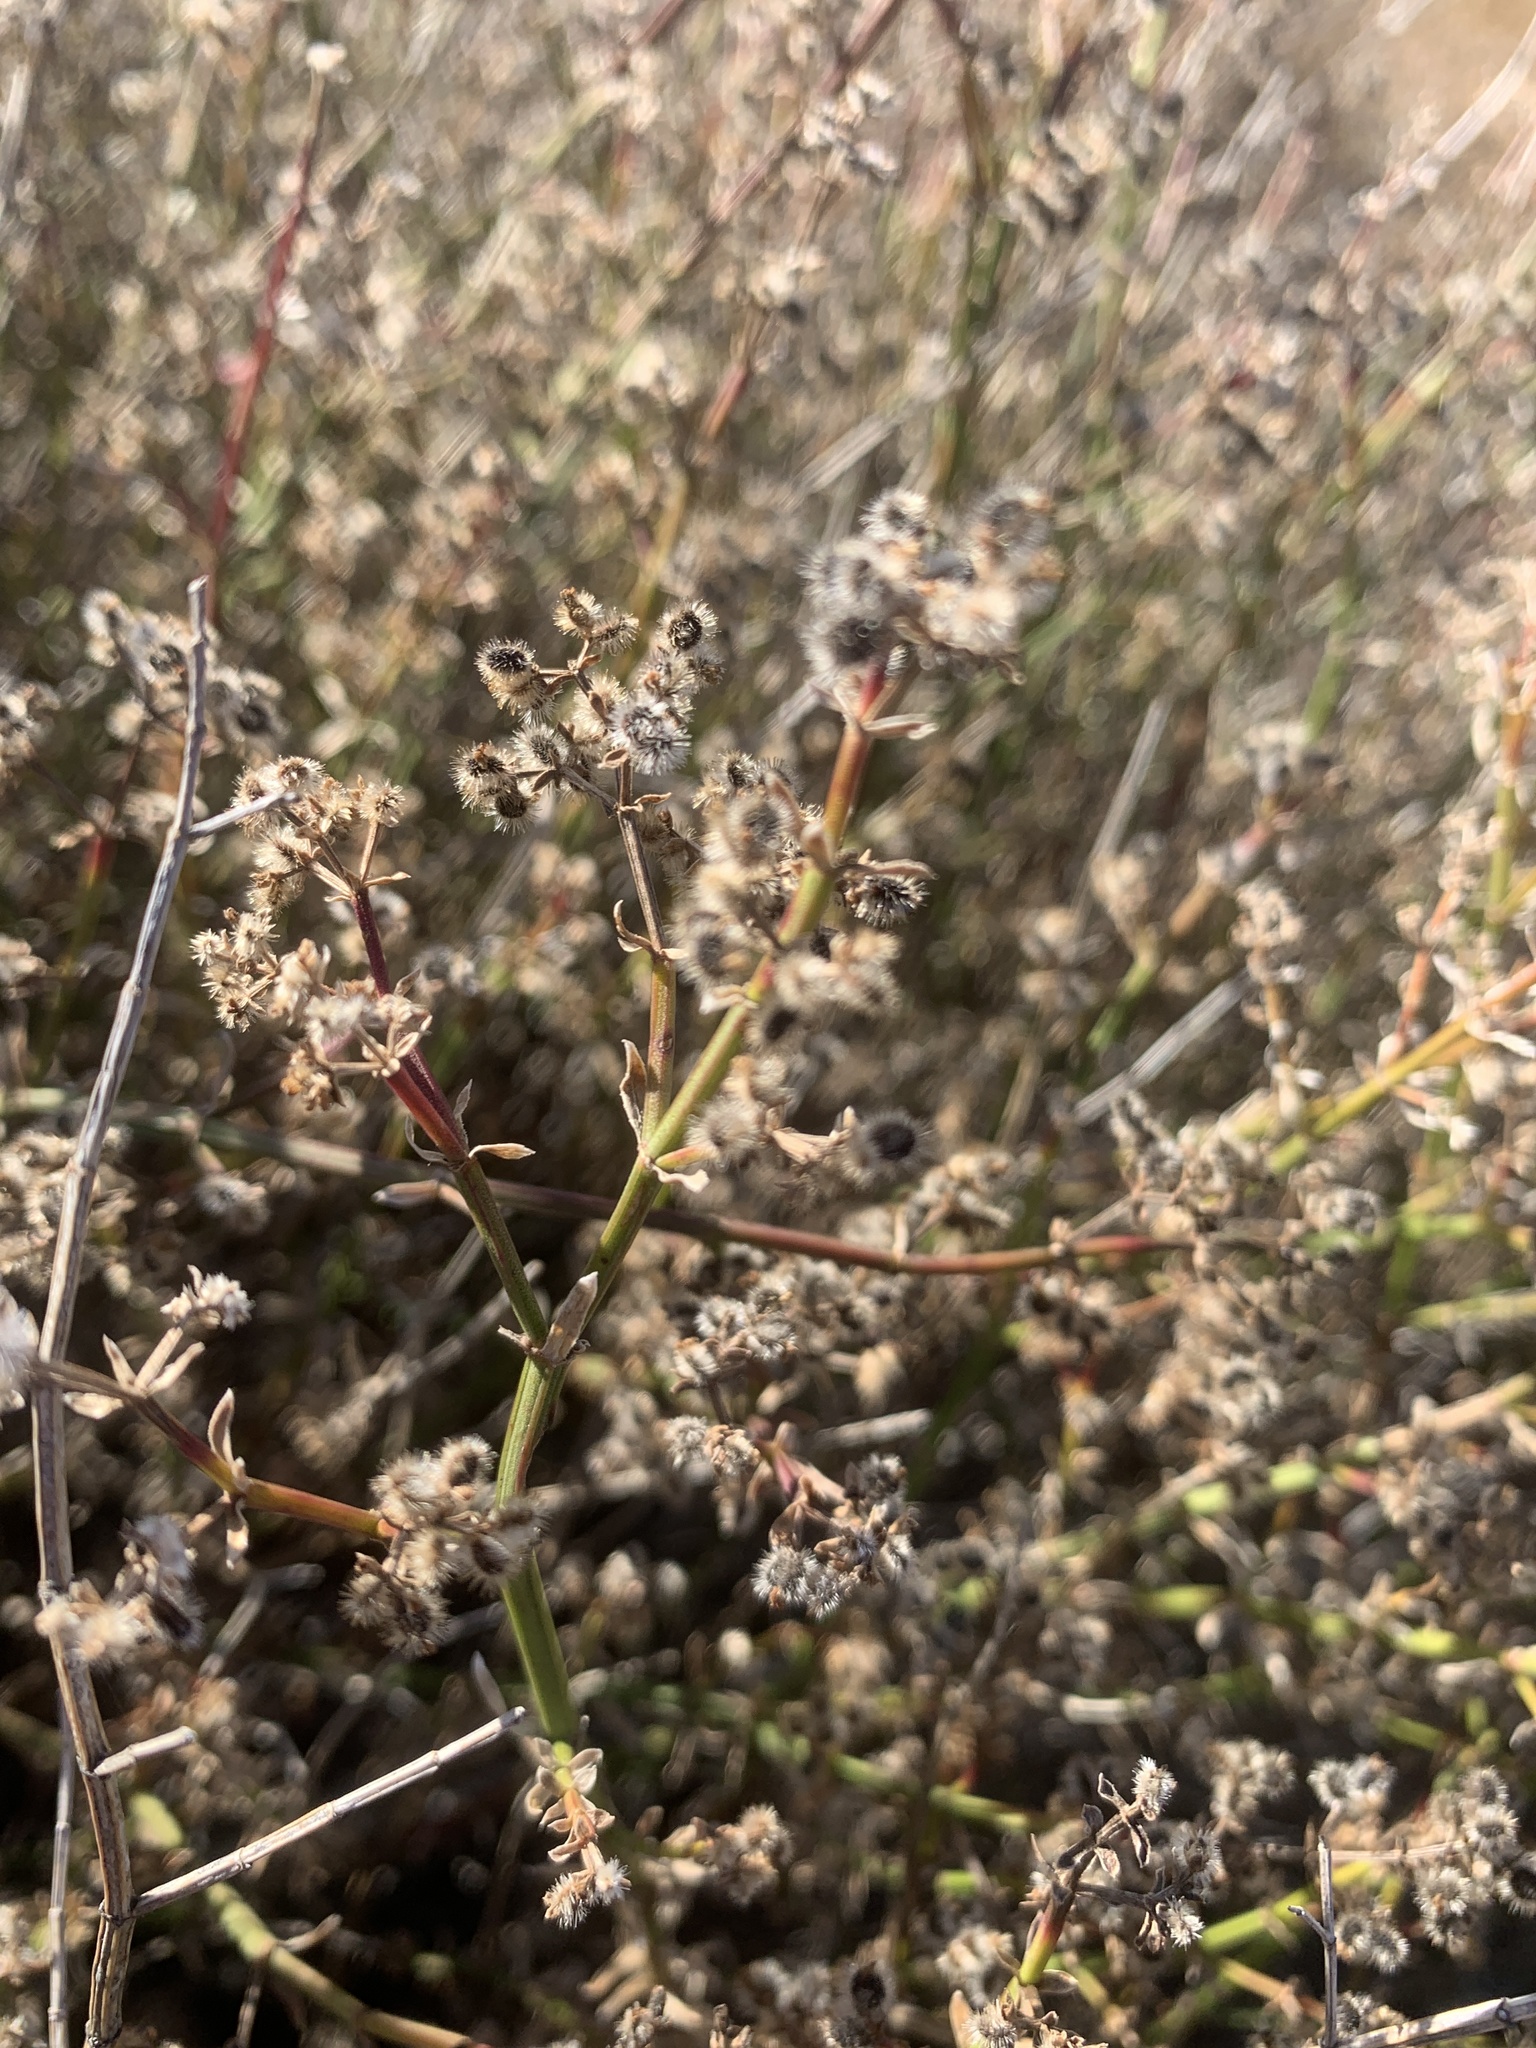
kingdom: Plantae
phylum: Tracheophyta
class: Magnoliopsida
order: Gentianales
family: Rubiaceae
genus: Galium
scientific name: Galium angustifolium
